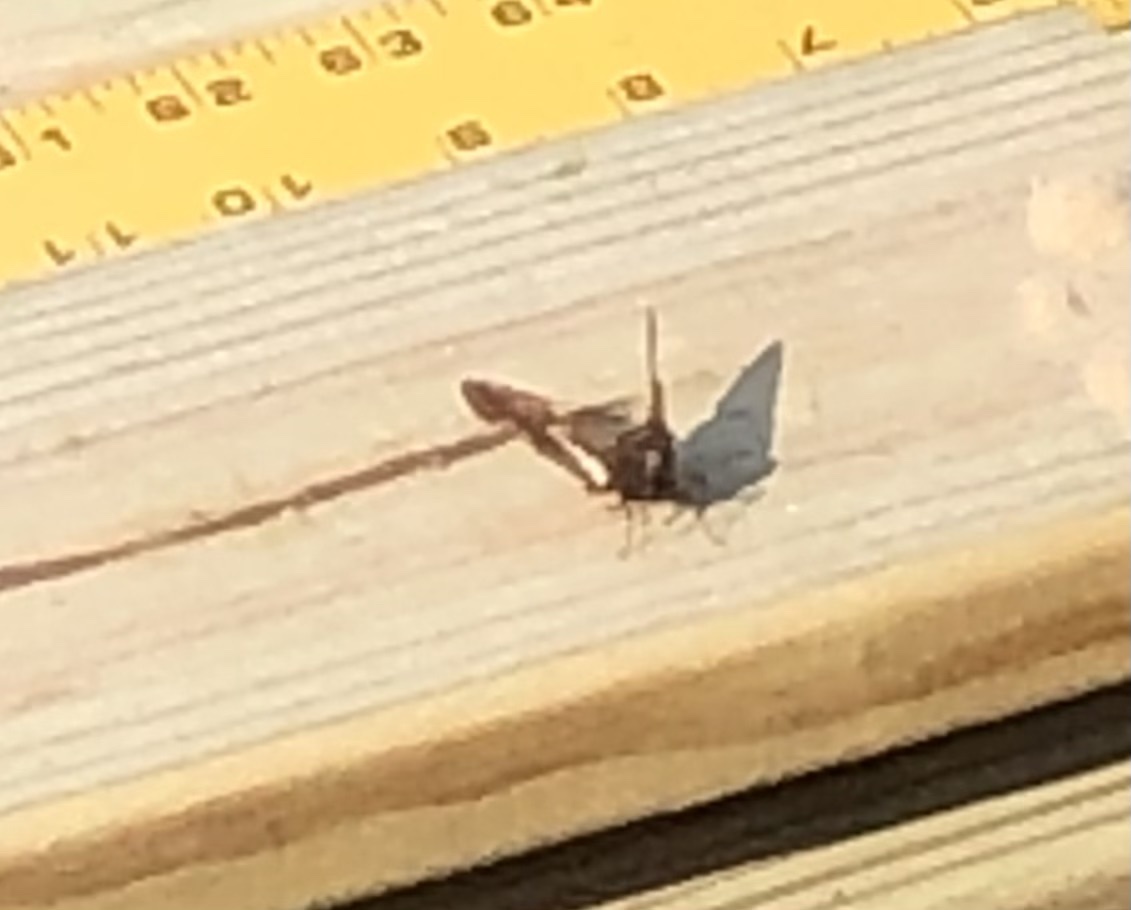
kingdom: Animalia
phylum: Arthropoda
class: Insecta
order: Lepidoptera
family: Hesperiidae
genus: Epargyreus
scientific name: Epargyreus clarus
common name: Silver-spotted skipper
